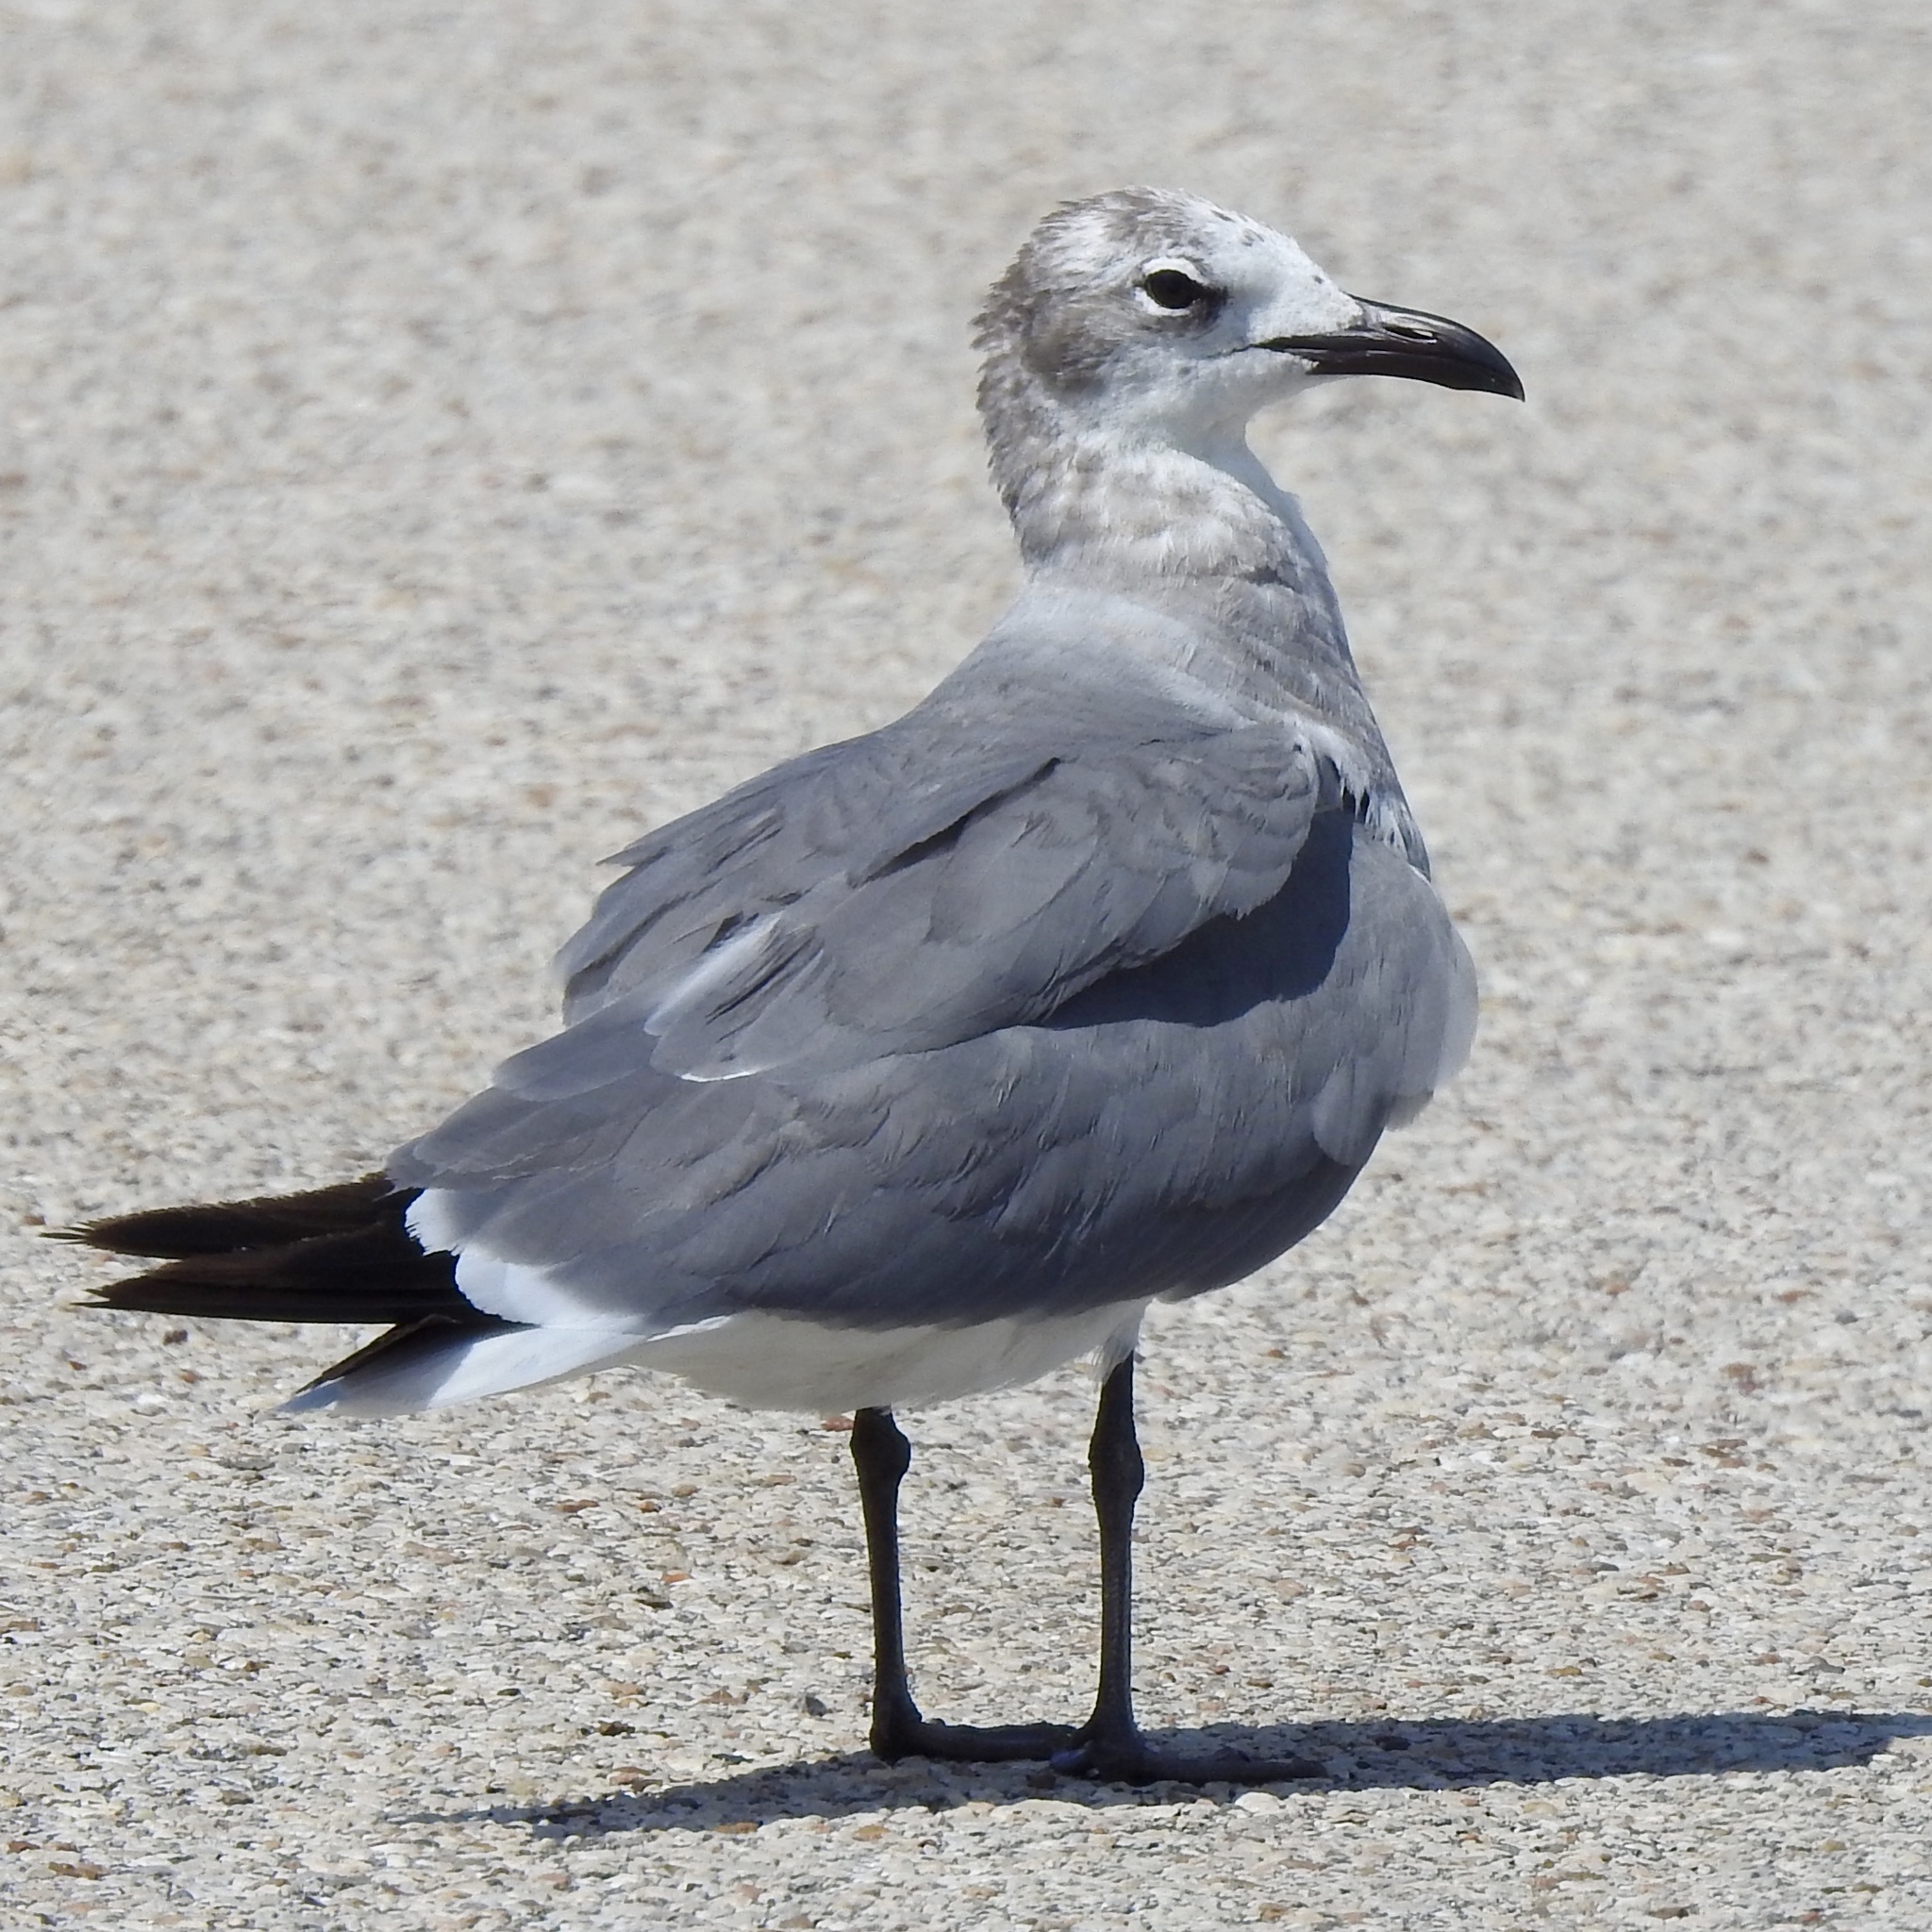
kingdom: Animalia
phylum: Chordata
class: Aves
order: Charadriiformes
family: Laridae
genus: Leucophaeus
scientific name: Leucophaeus atricilla
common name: Laughing gull
